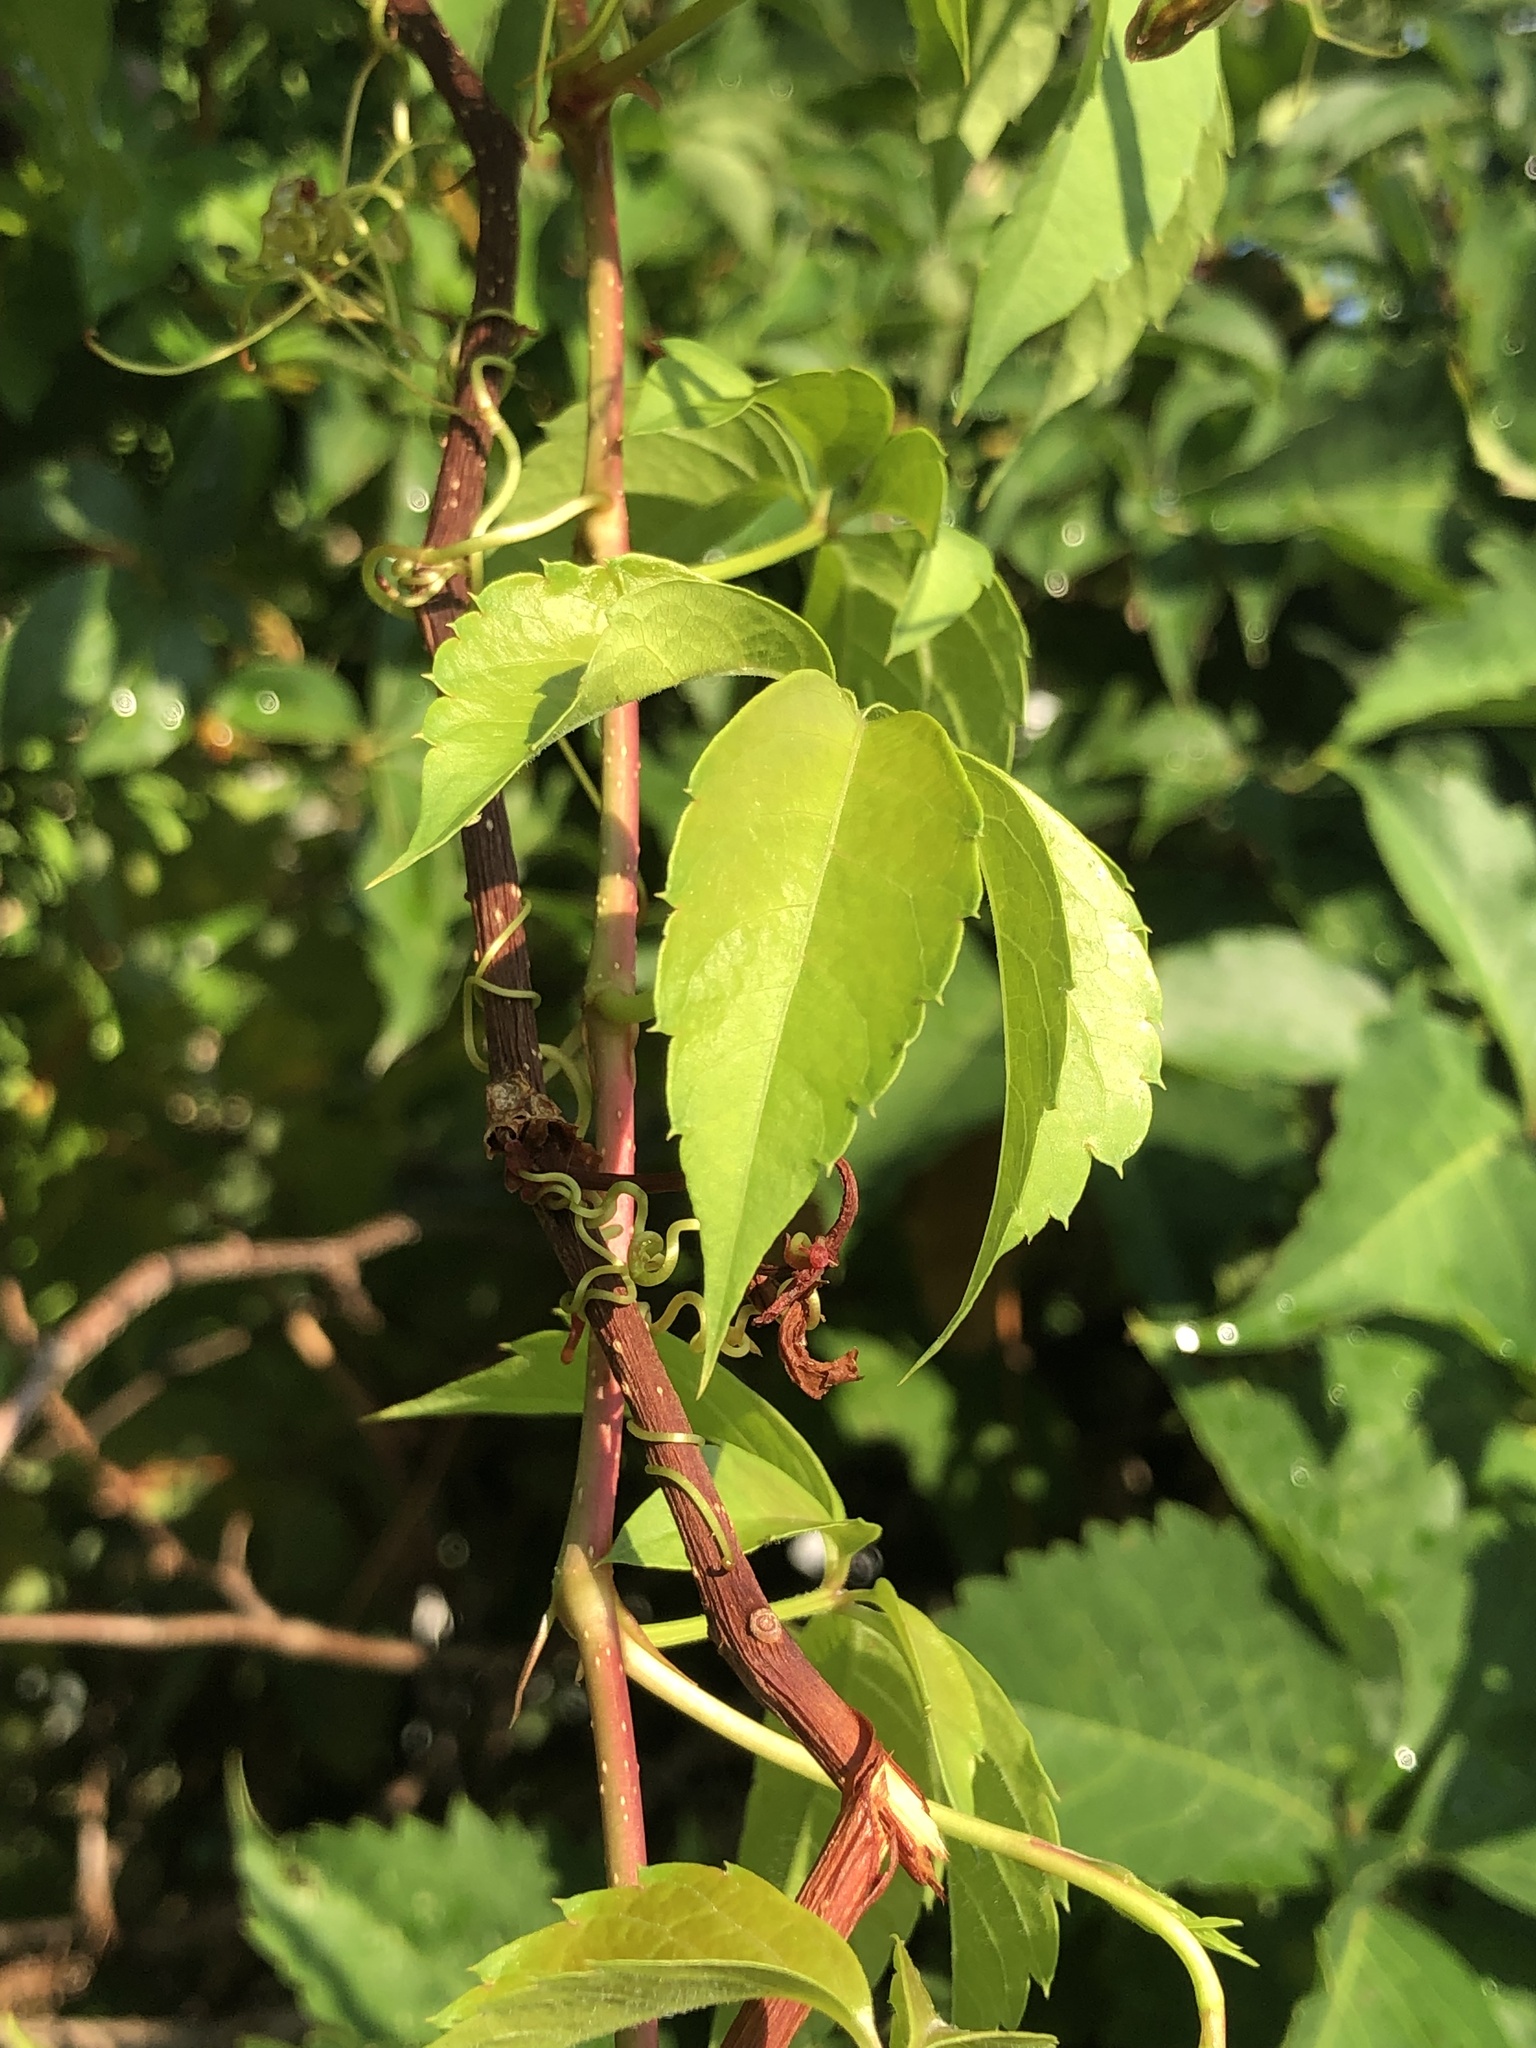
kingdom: Plantae
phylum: Tracheophyta
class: Magnoliopsida
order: Vitales
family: Vitaceae
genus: Parthenocissus
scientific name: Parthenocissus quinquefolia
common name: Virginia-creeper
